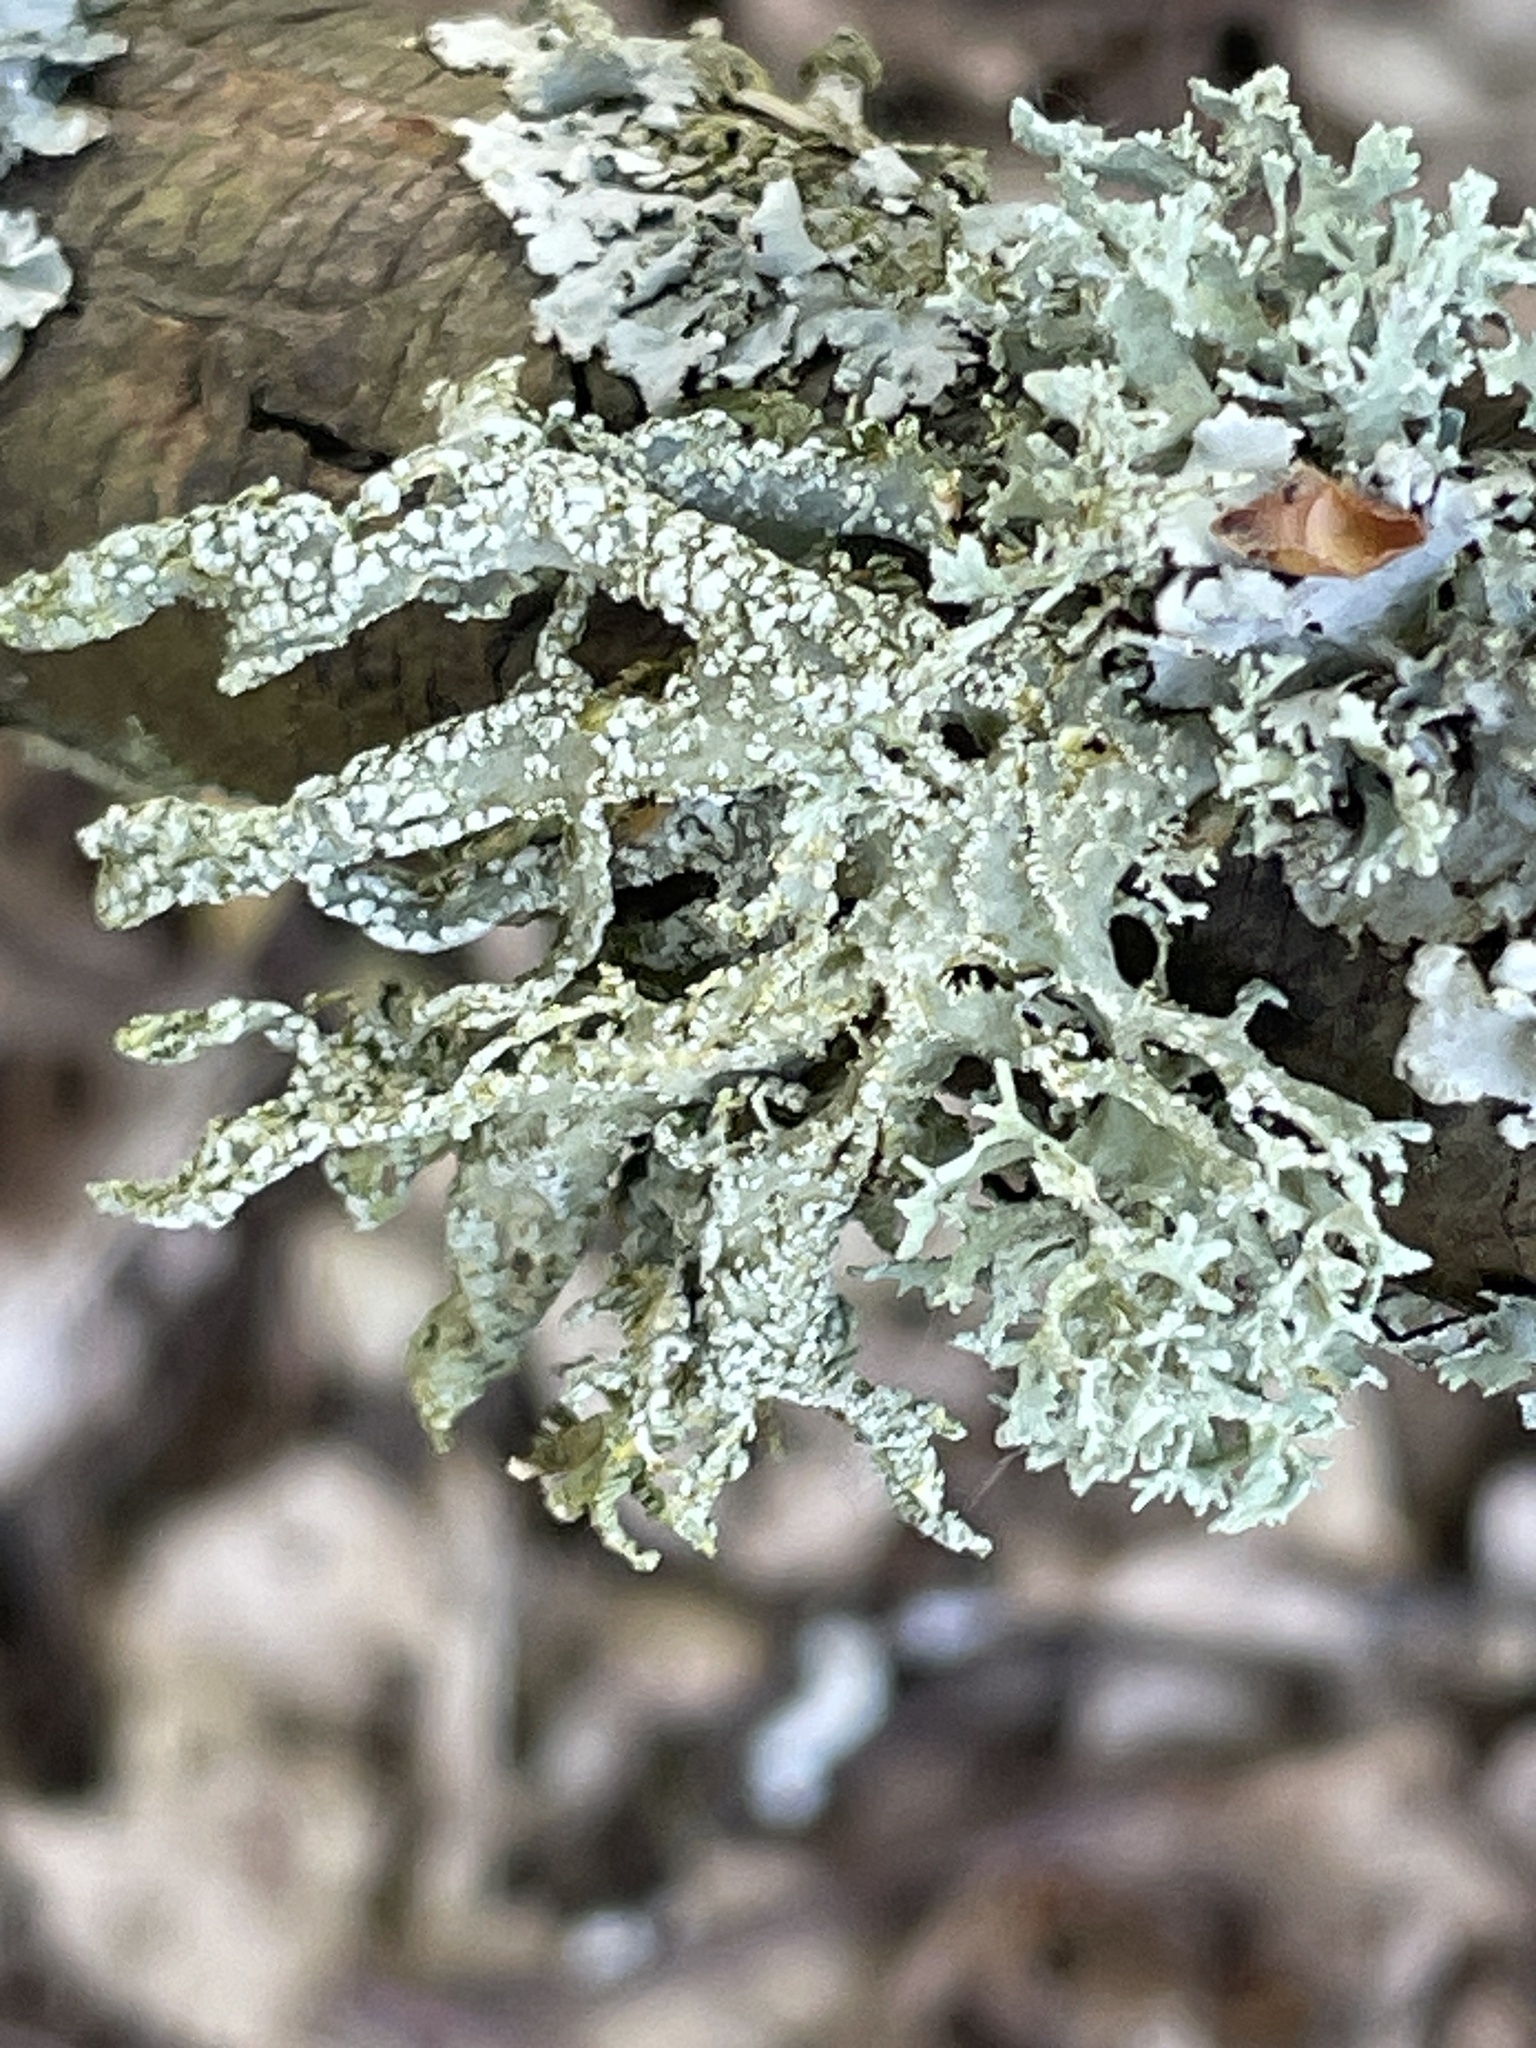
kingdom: Fungi
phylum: Ascomycota
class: Lecanoromycetes
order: Lecanorales
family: Ramalinaceae
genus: Ramalina
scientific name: Ramalina farinacea
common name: Farinose cartilage lichen
